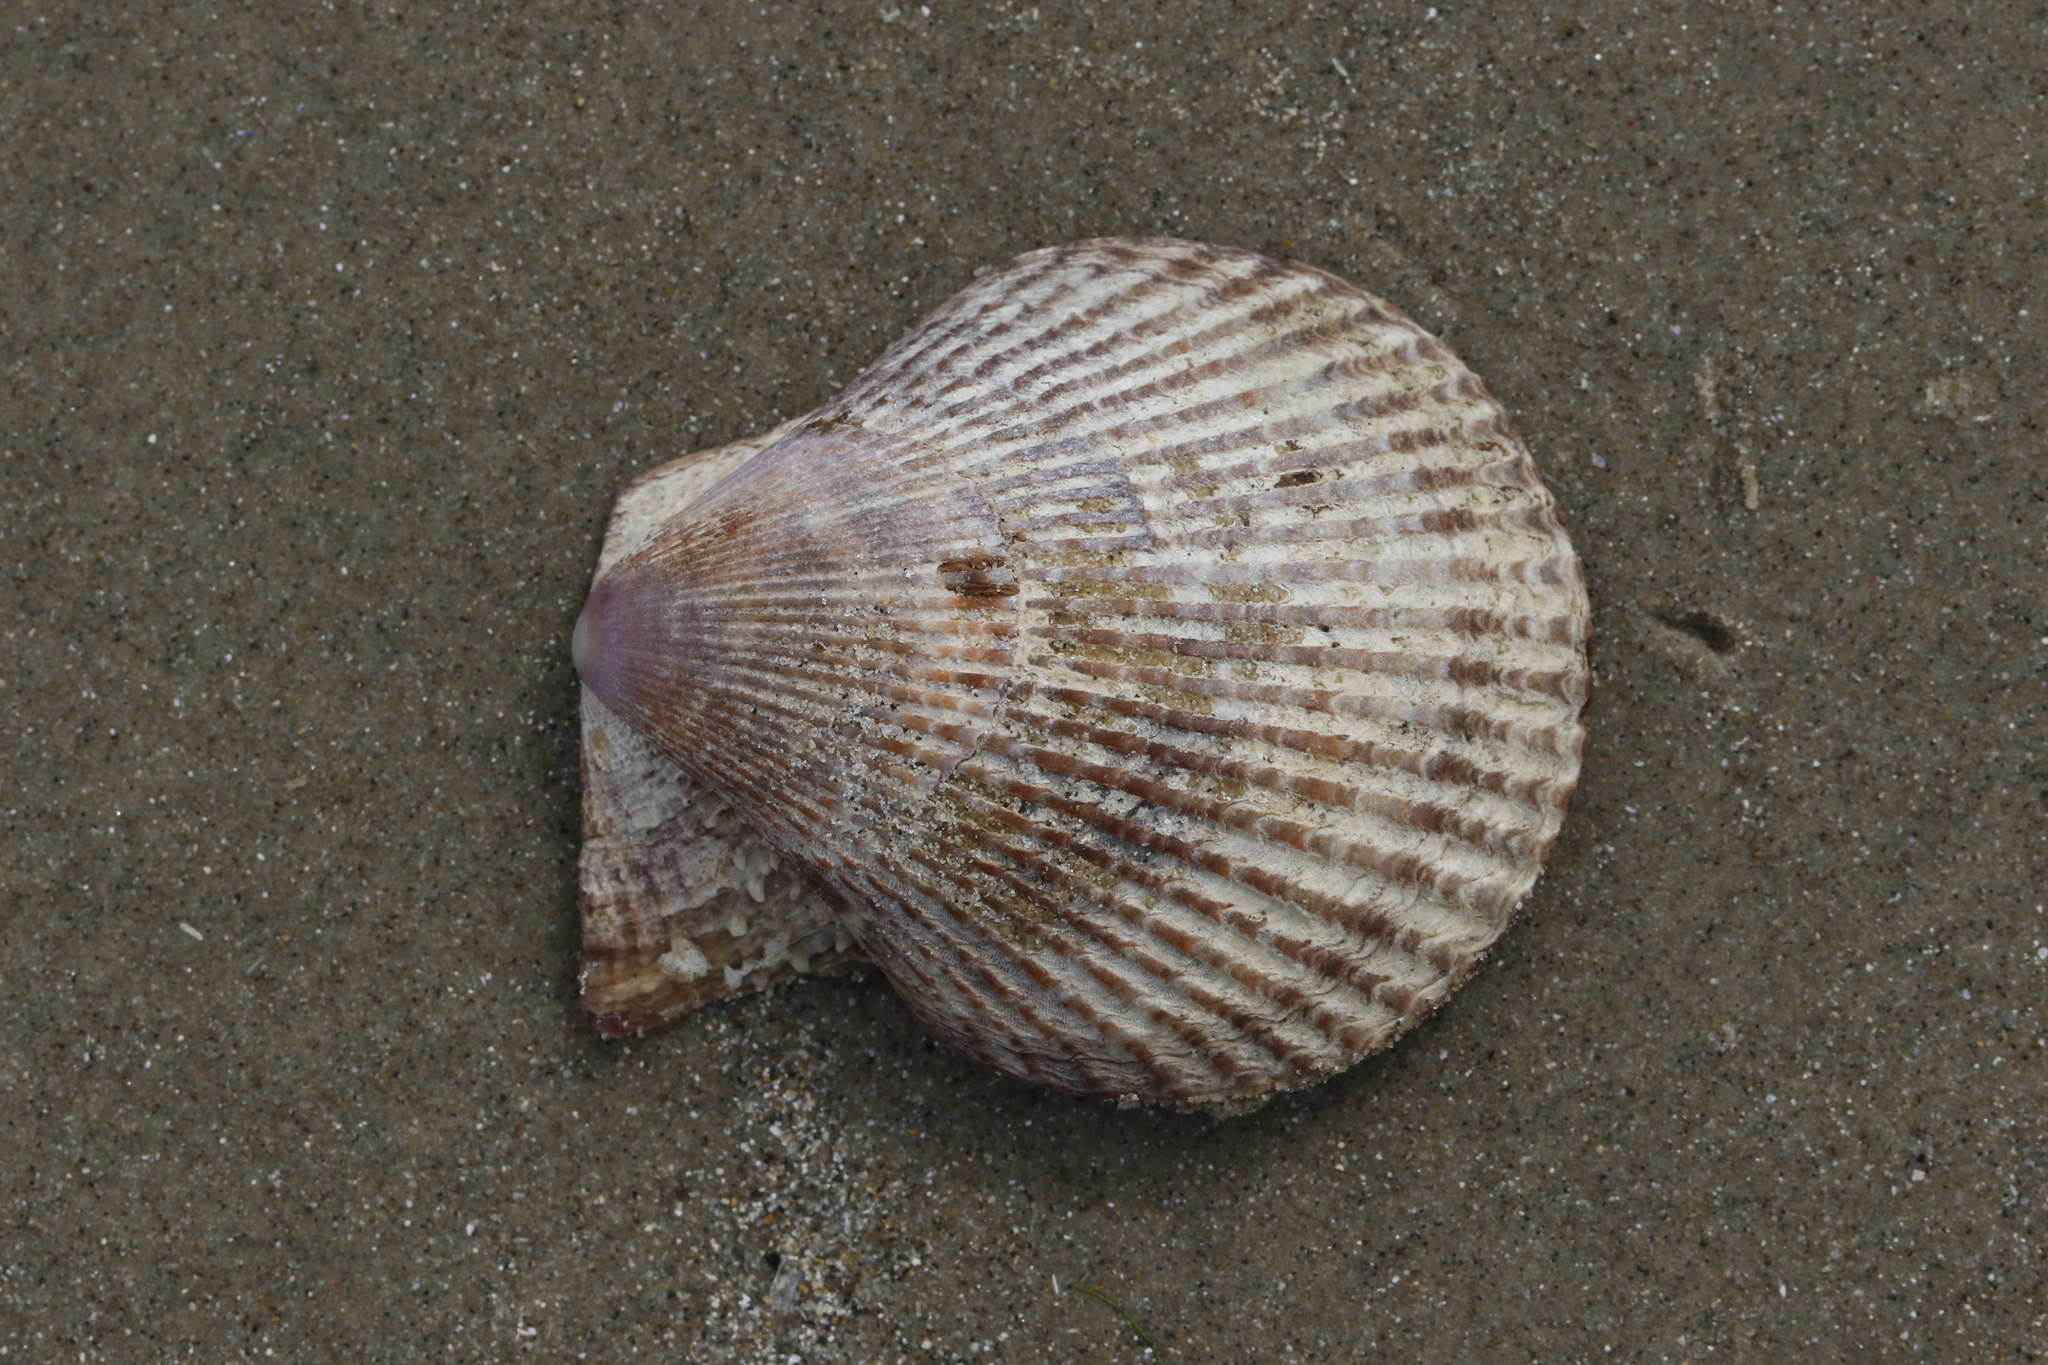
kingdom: Animalia
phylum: Mollusca
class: Bivalvia
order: Pectinida
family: Pectinidae
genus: Mimachlamys
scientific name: Mimachlamys varia
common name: Variegated scallop
